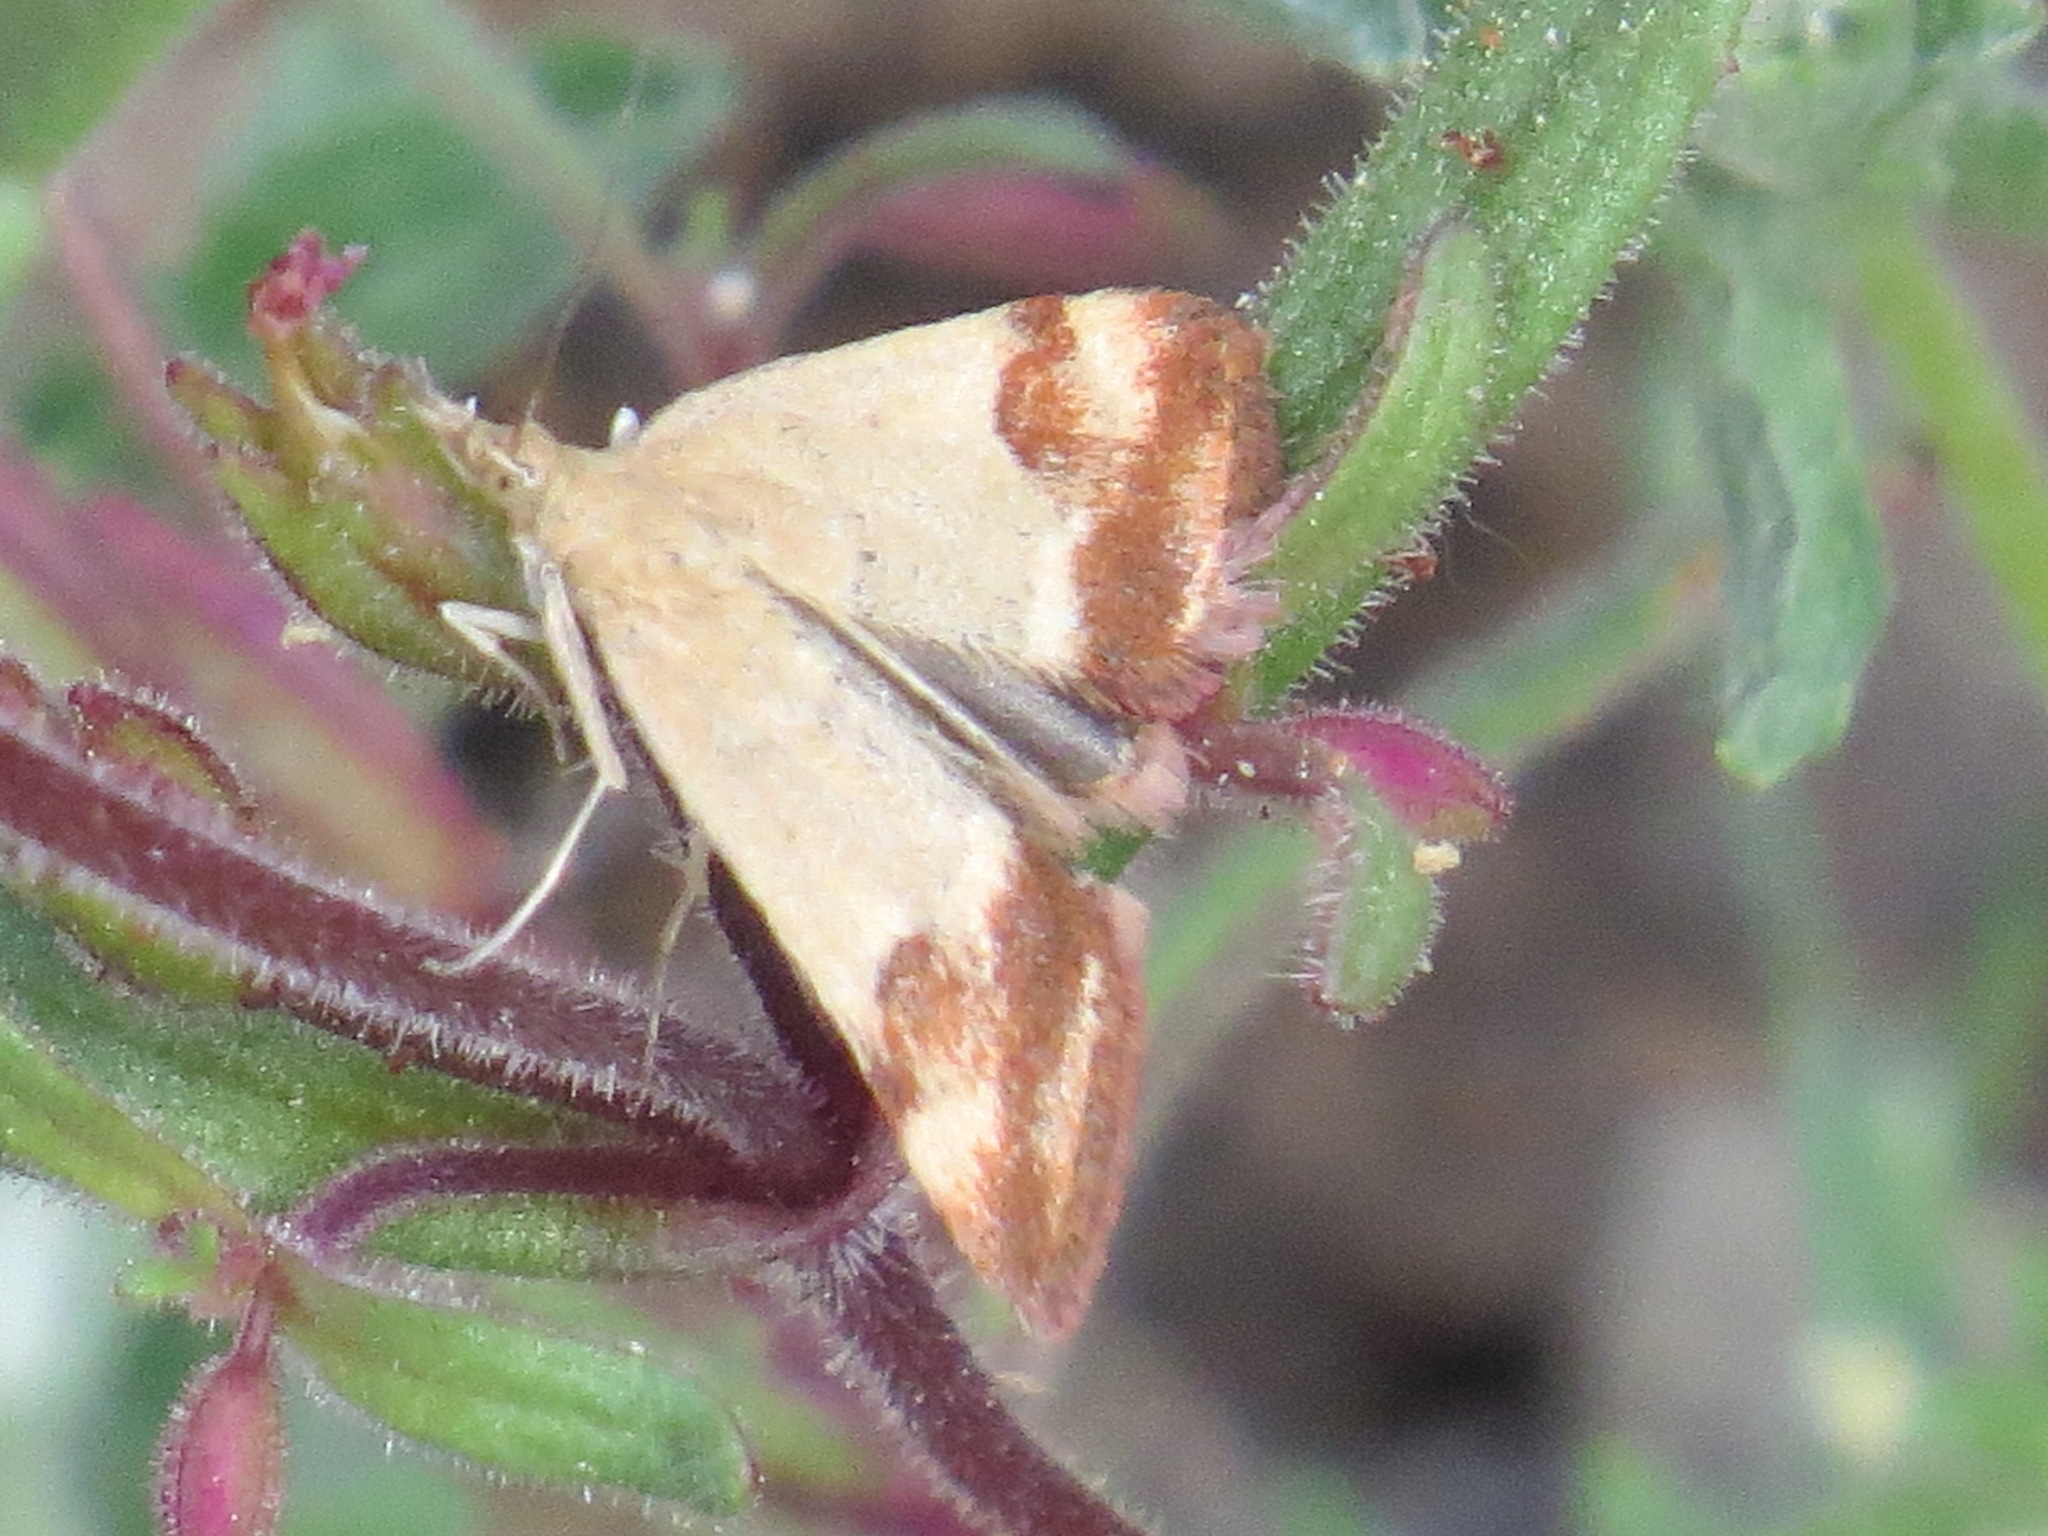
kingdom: Animalia
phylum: Arthropoda
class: Insecta
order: Lepidoptera
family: Crambidae
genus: Pyrausta
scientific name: Pyrausta semirubralis
